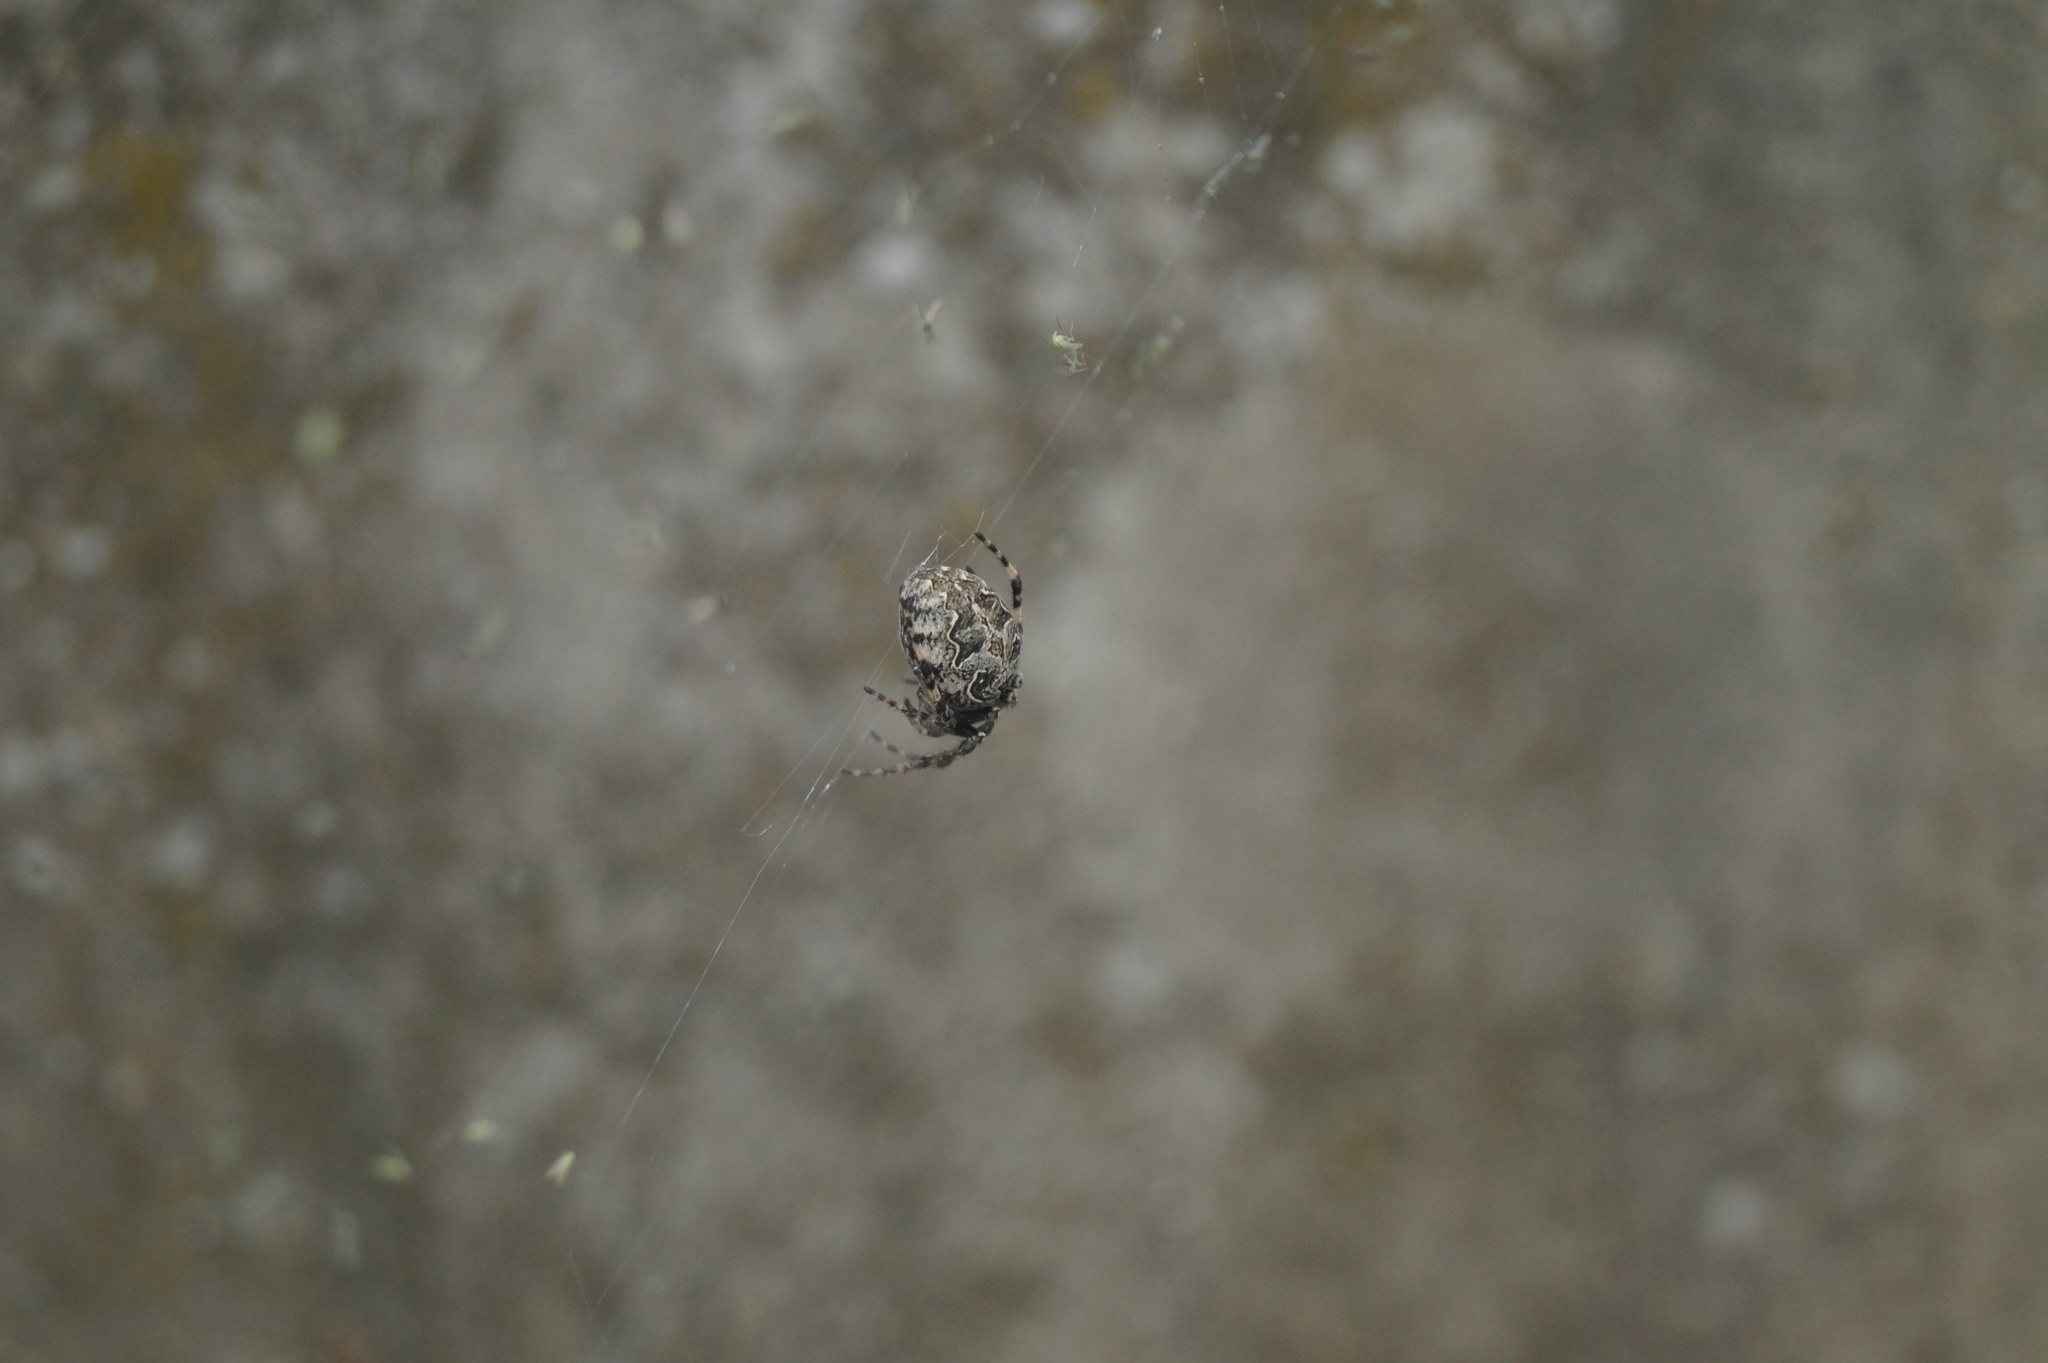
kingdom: Animalia
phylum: Arthropoda
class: Arachnida
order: Araneae
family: Araneidae
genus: Larinioides
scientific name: Larinioides sclopetarius
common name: Bridge orbweaver
